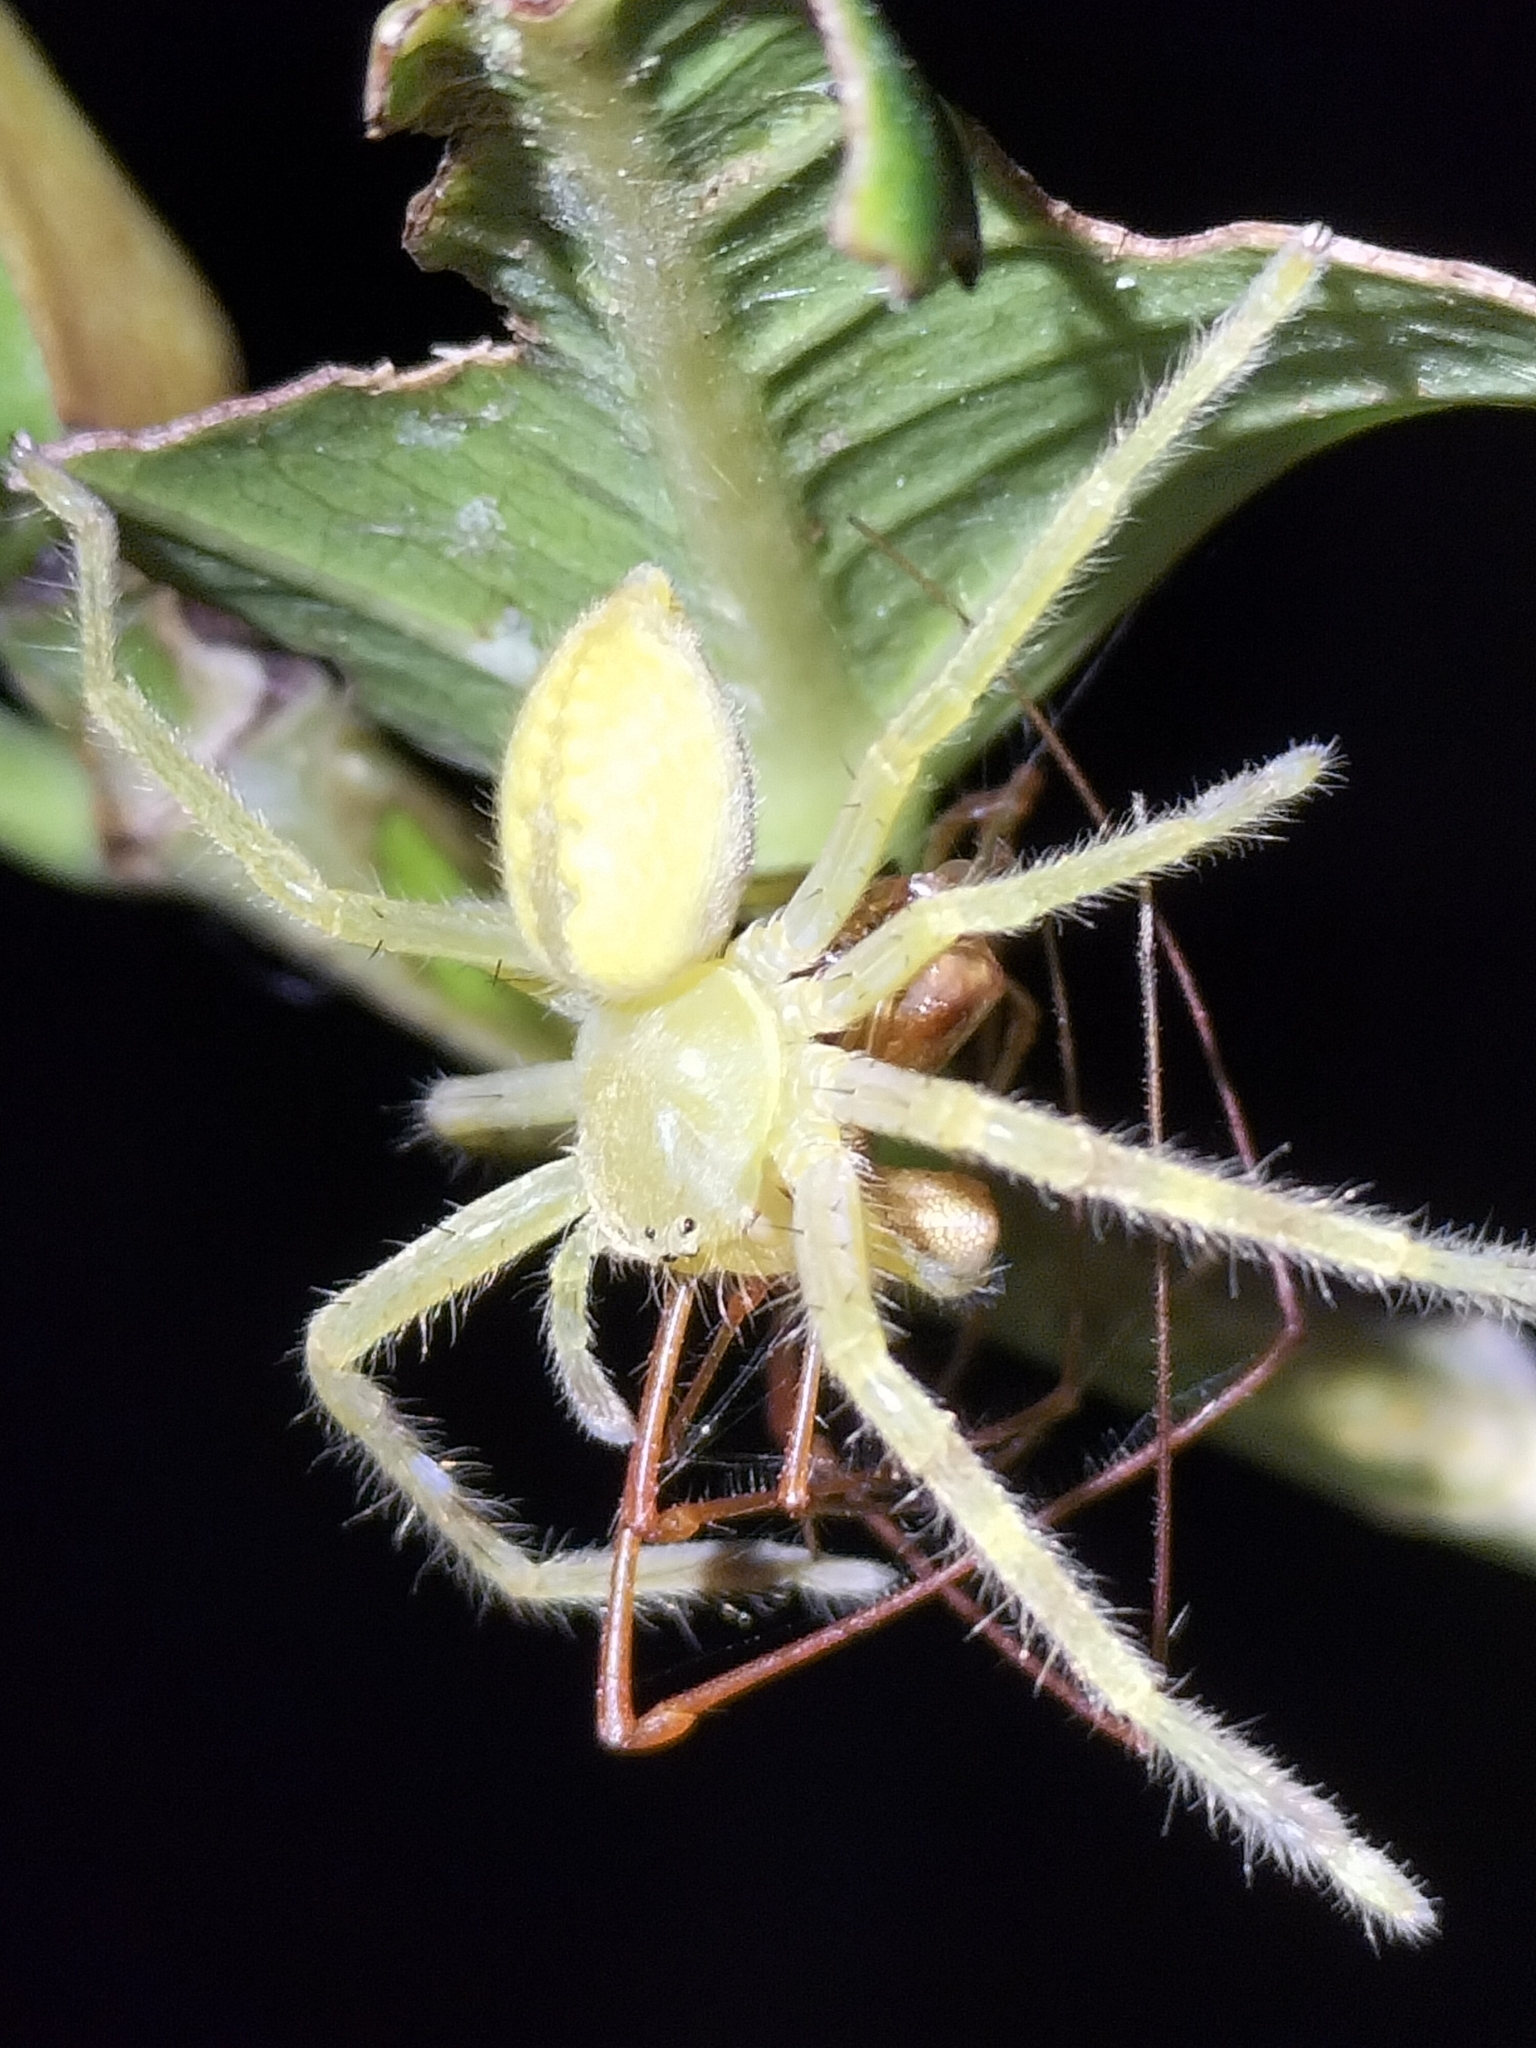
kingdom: Animalia
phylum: Arthropoda
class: Arachnida
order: Araneae
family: Sparassidae
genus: Neosparassus
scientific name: Neosparassus salacius
